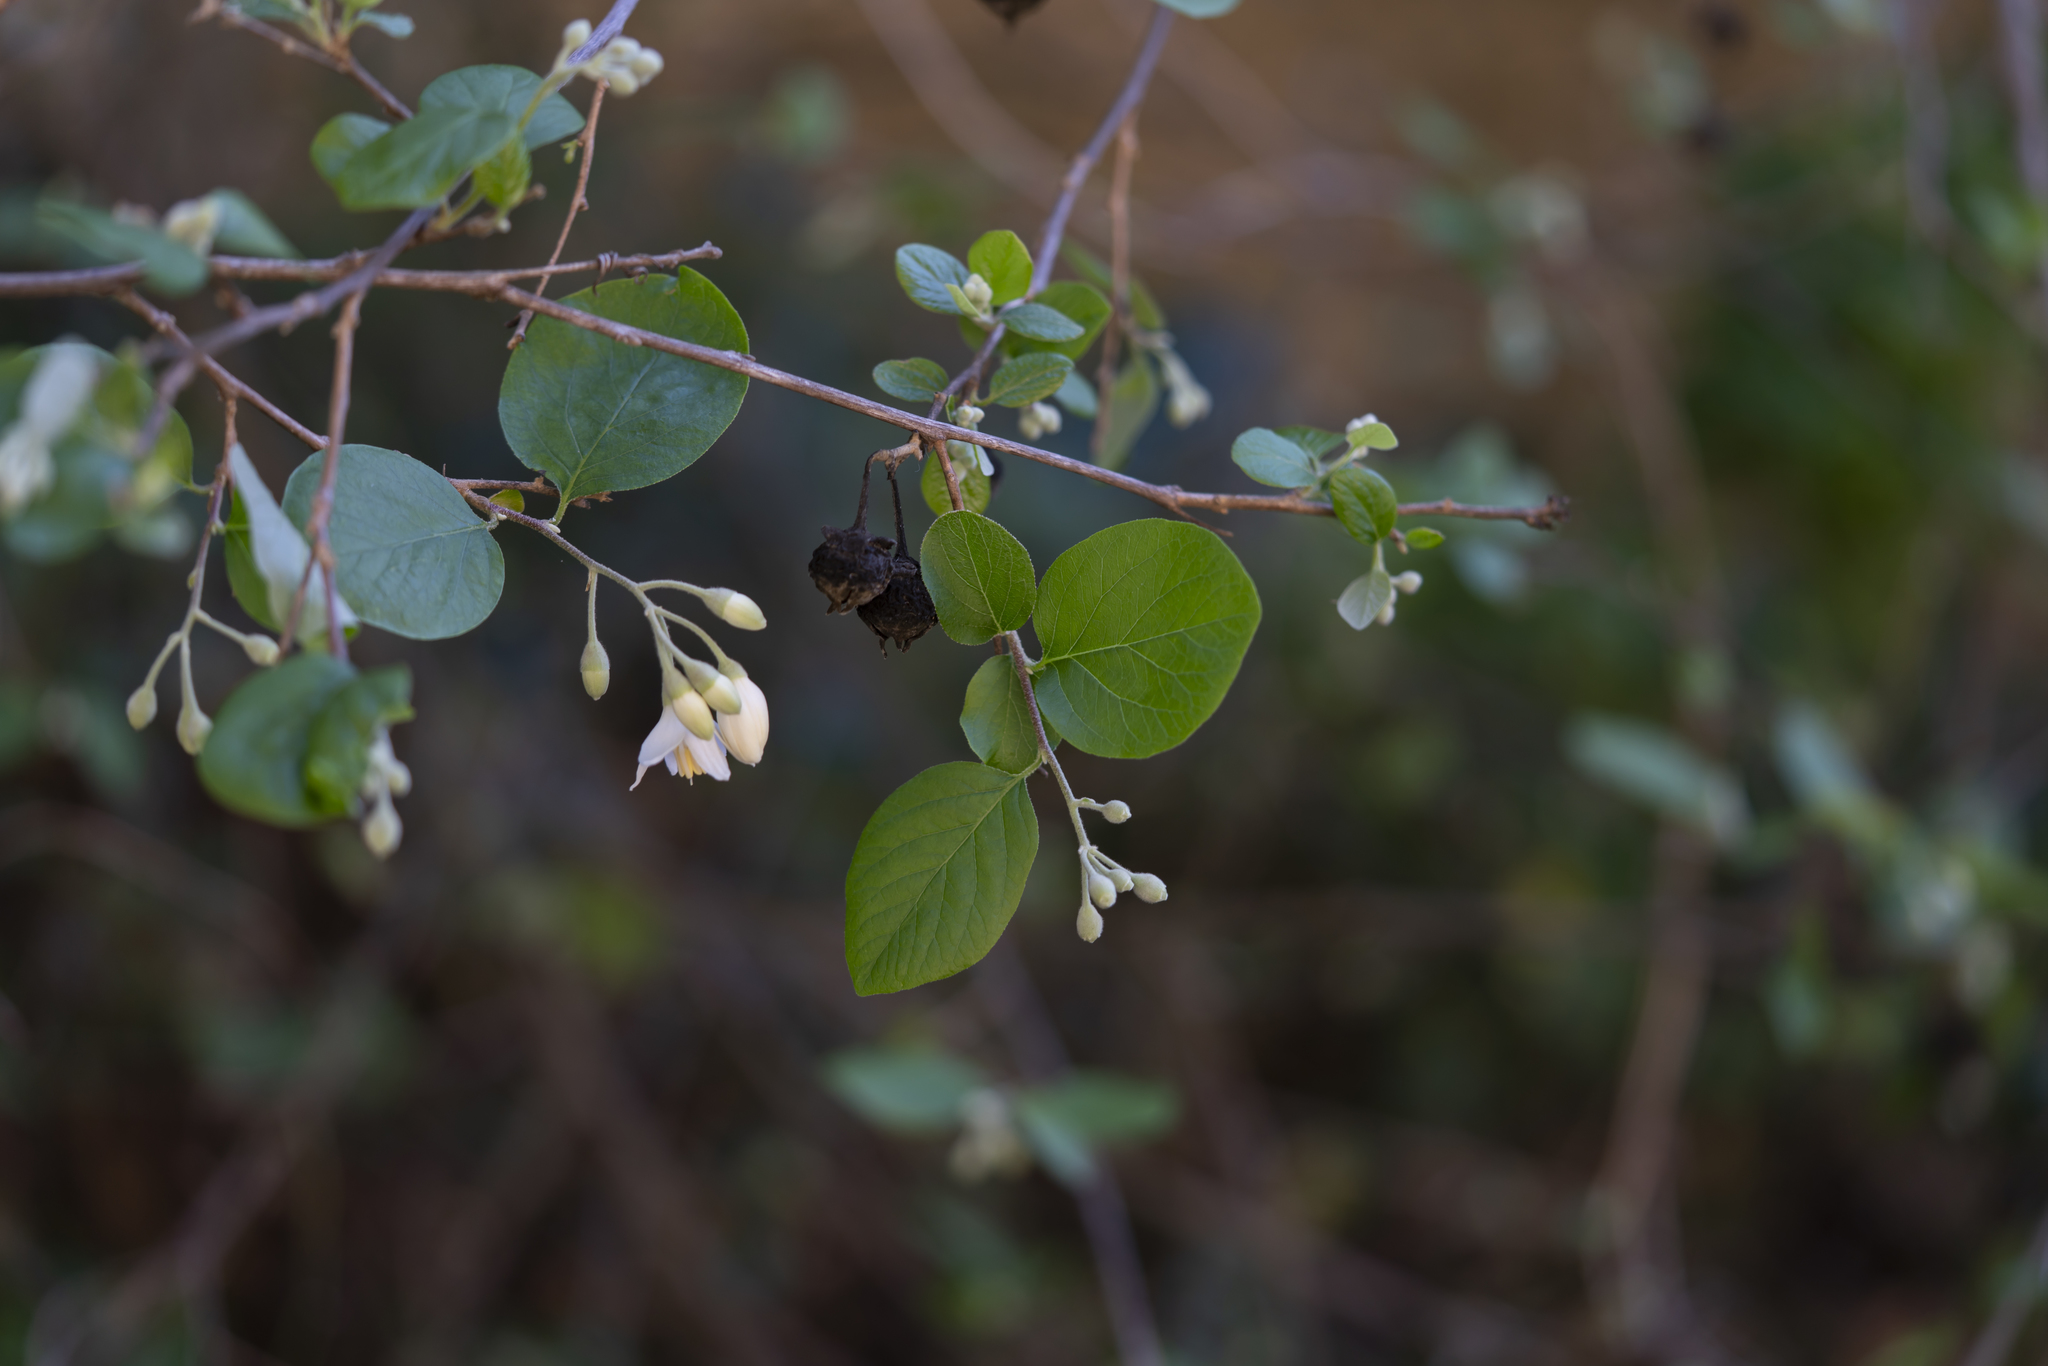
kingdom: Plantae
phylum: Tracheophyta
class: Magnoliopsida
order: Ericales
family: Styracaceae
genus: Styrax
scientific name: Styrax officinalis
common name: Storax
